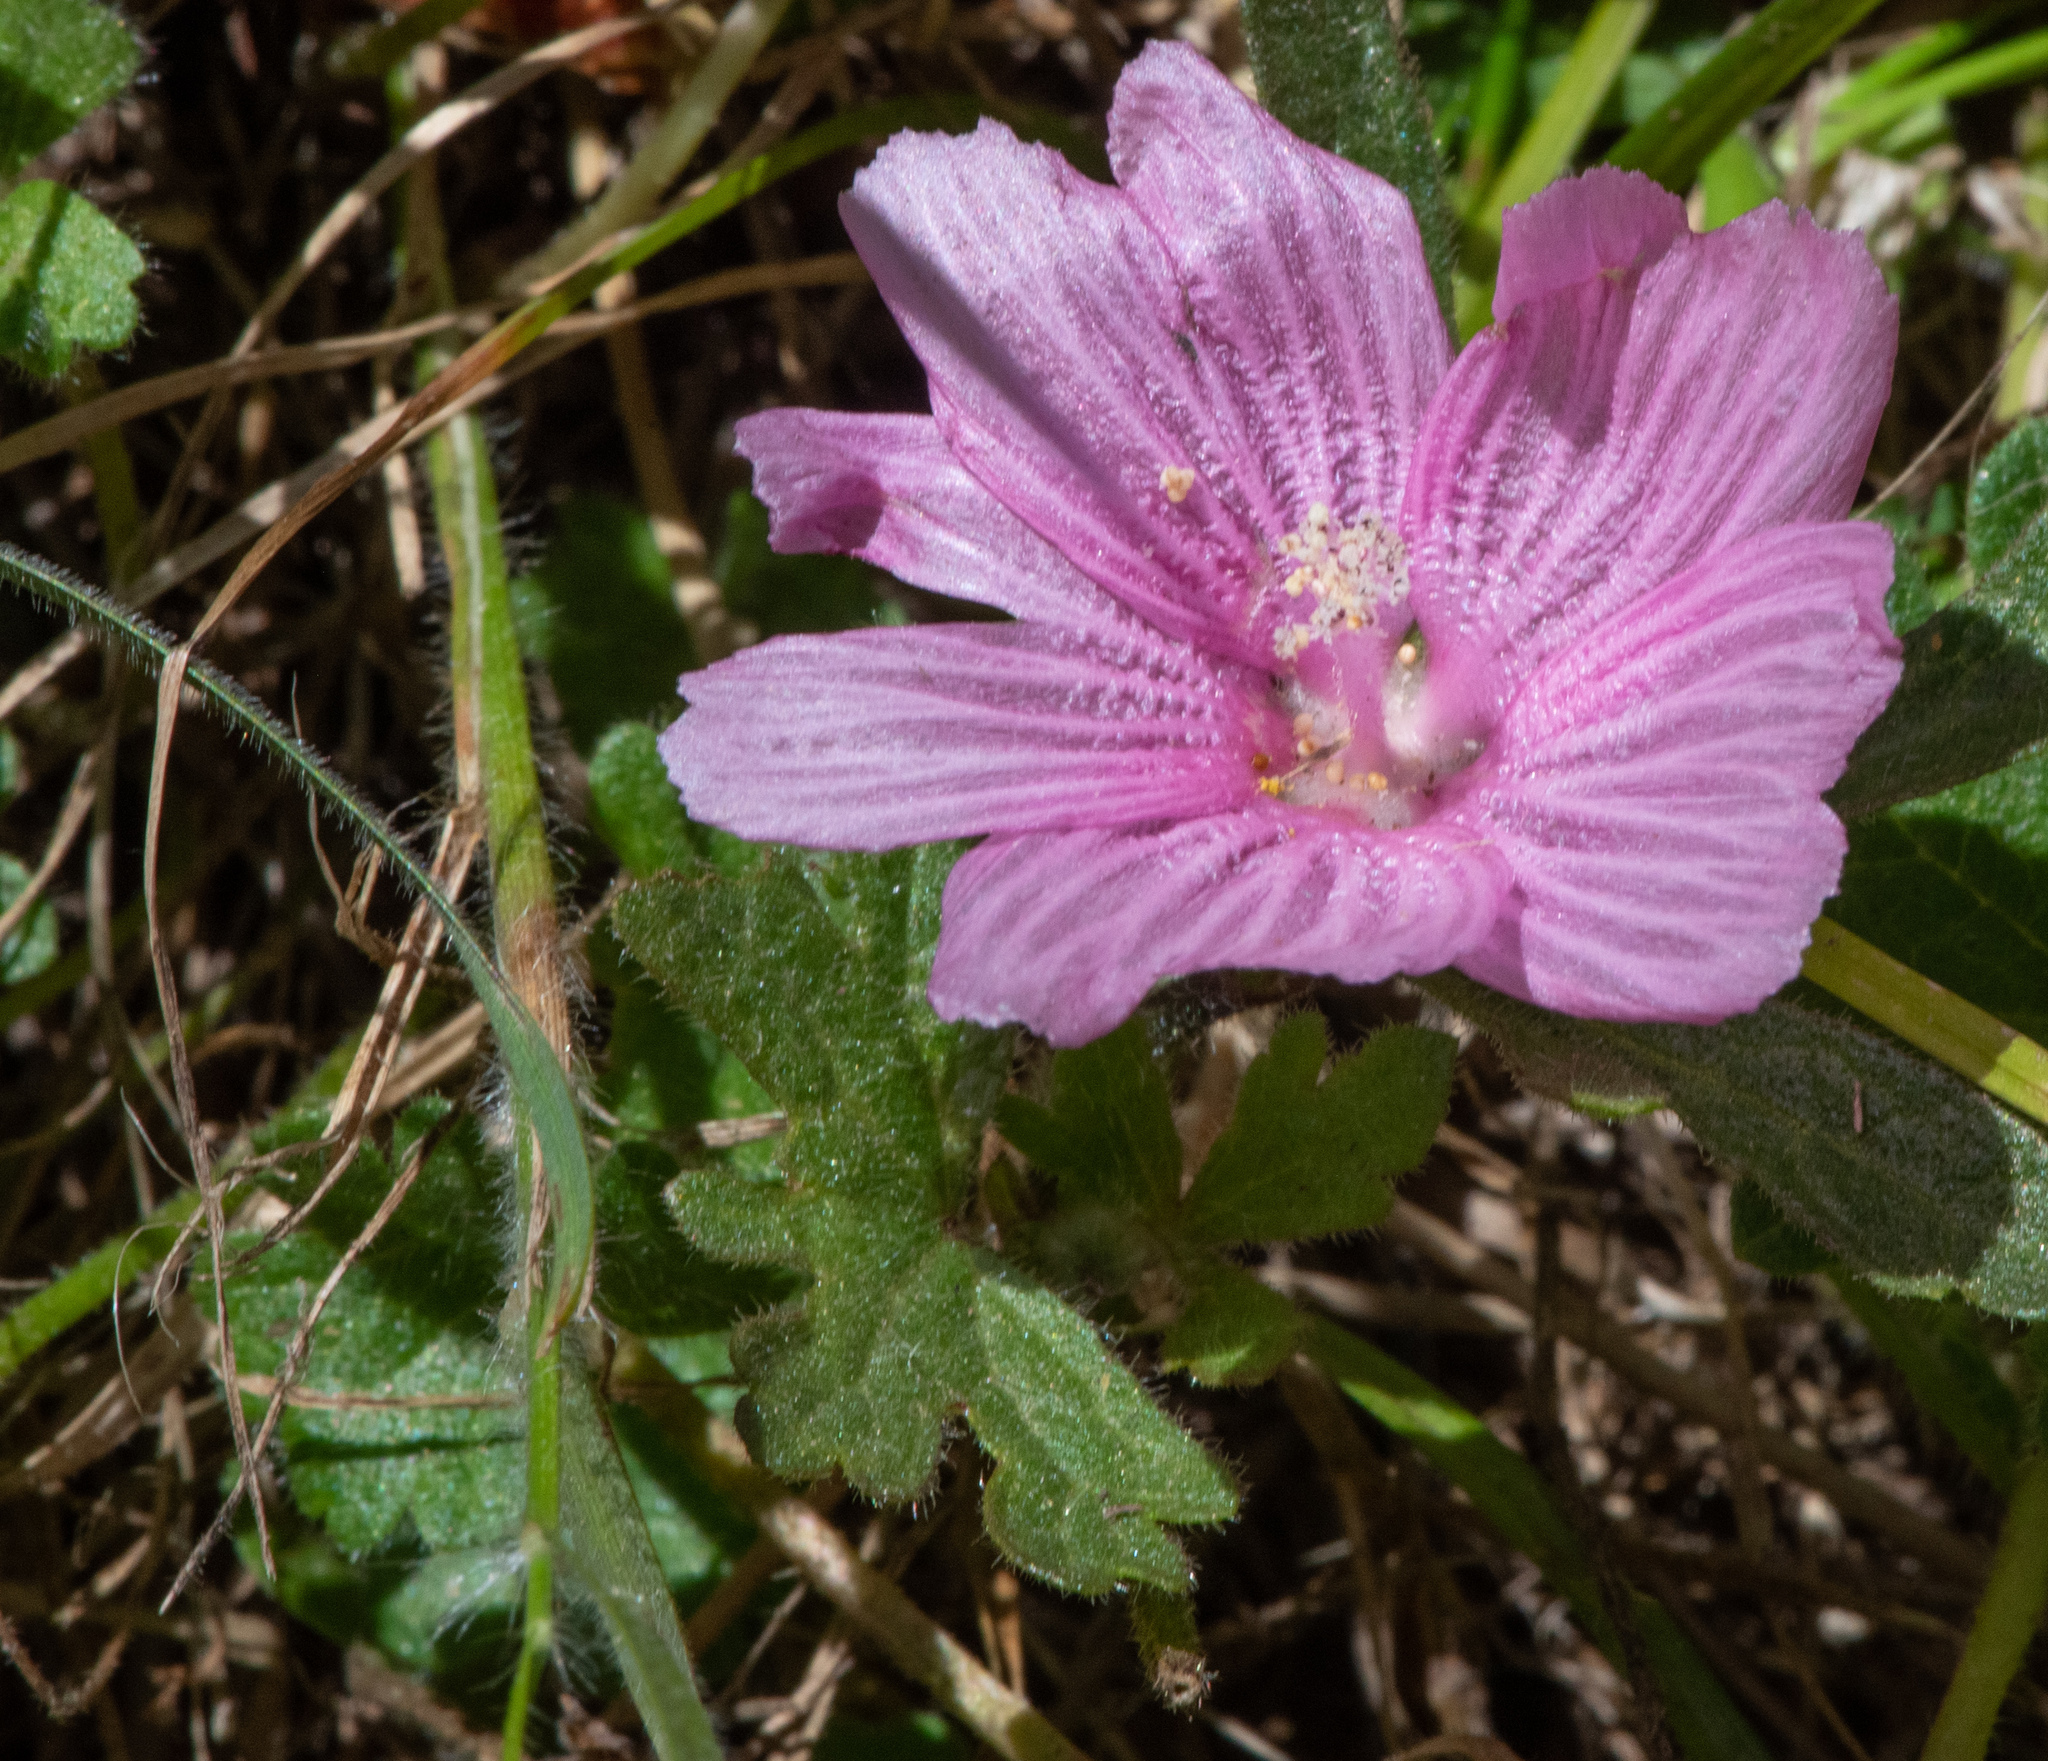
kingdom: Plantae
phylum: Tracheophyta
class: Magnoliopsida
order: Malvales
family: Malvaceae
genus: Sidalcea
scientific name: Sidalcea malviflora
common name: Greek mallow
